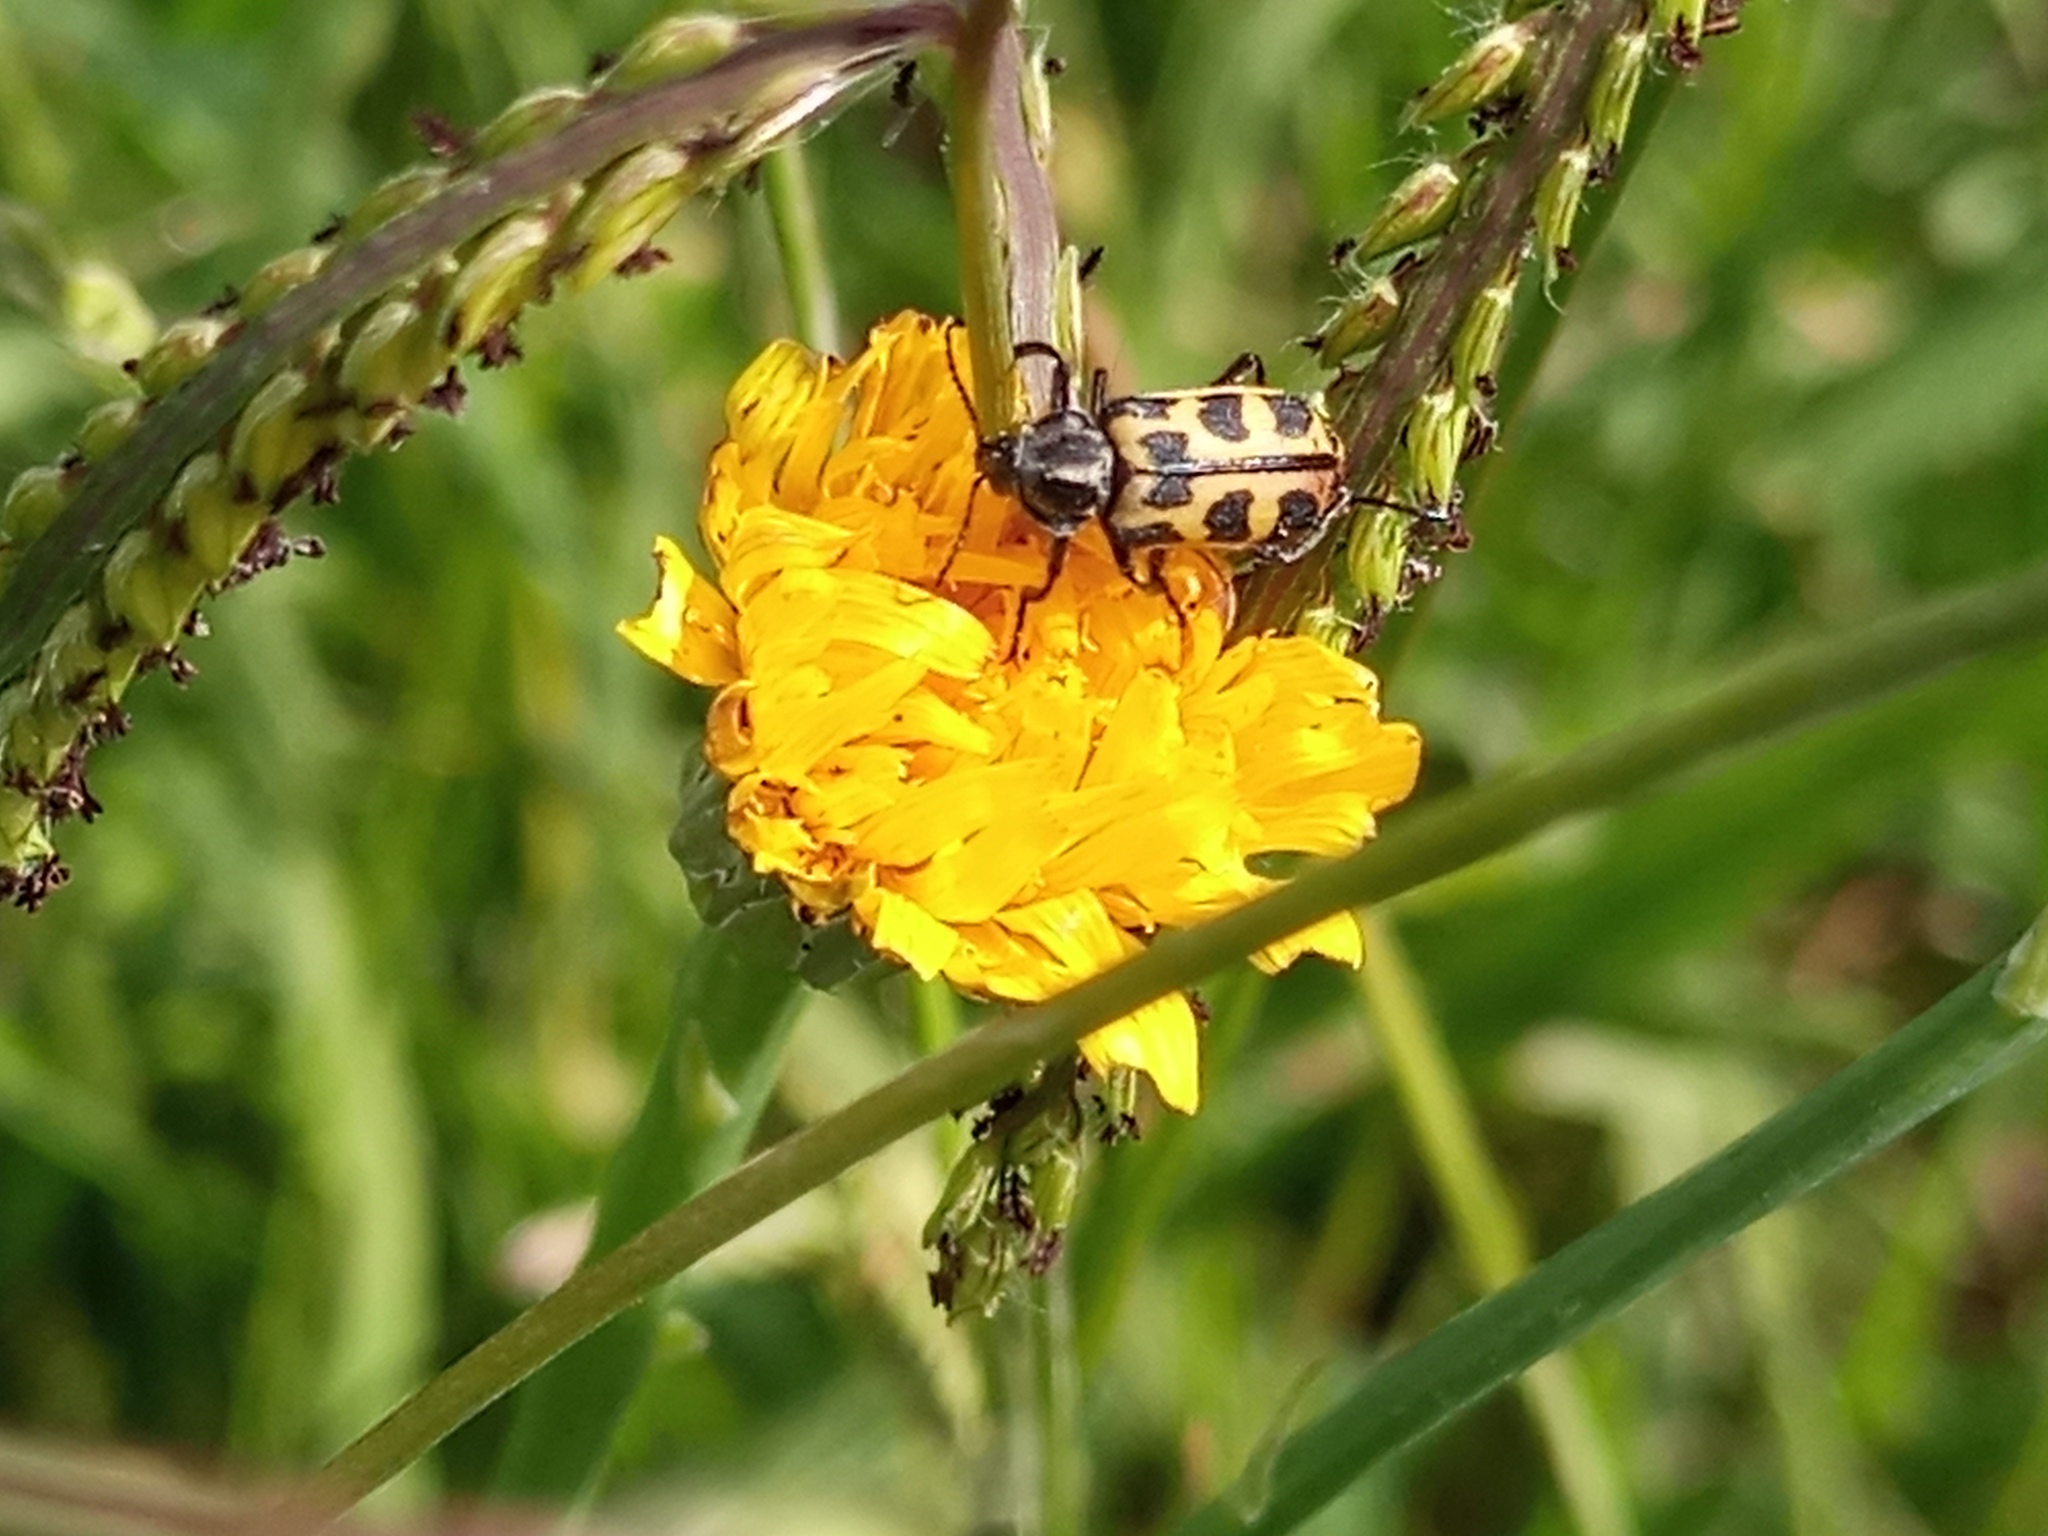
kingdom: Animalia
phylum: Arthropoda
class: Insecta
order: Coleoptera
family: Melyridae
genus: Astylus
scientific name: Astylus atromaculatus
